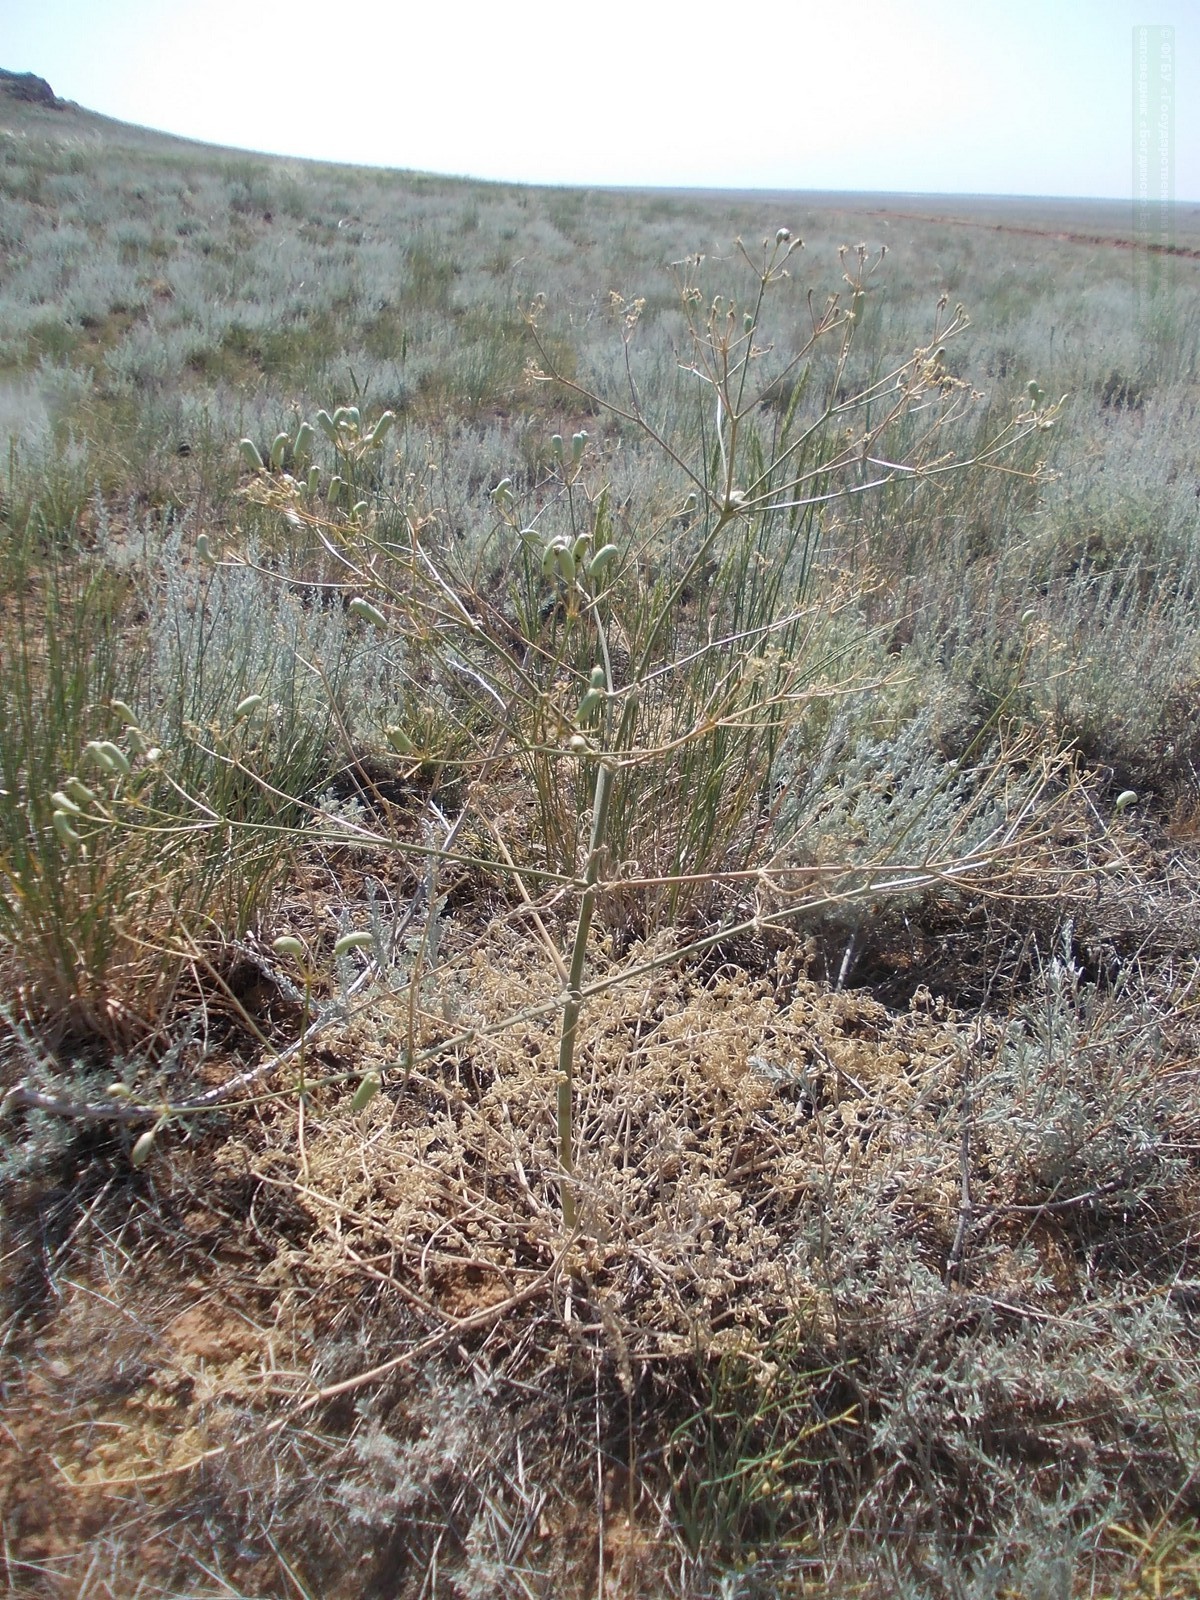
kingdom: Plantae
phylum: Tracheophyta
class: Magnoliopsida
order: Apiales
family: Apiaceae
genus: Prangos
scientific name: Prangos odontalgica
